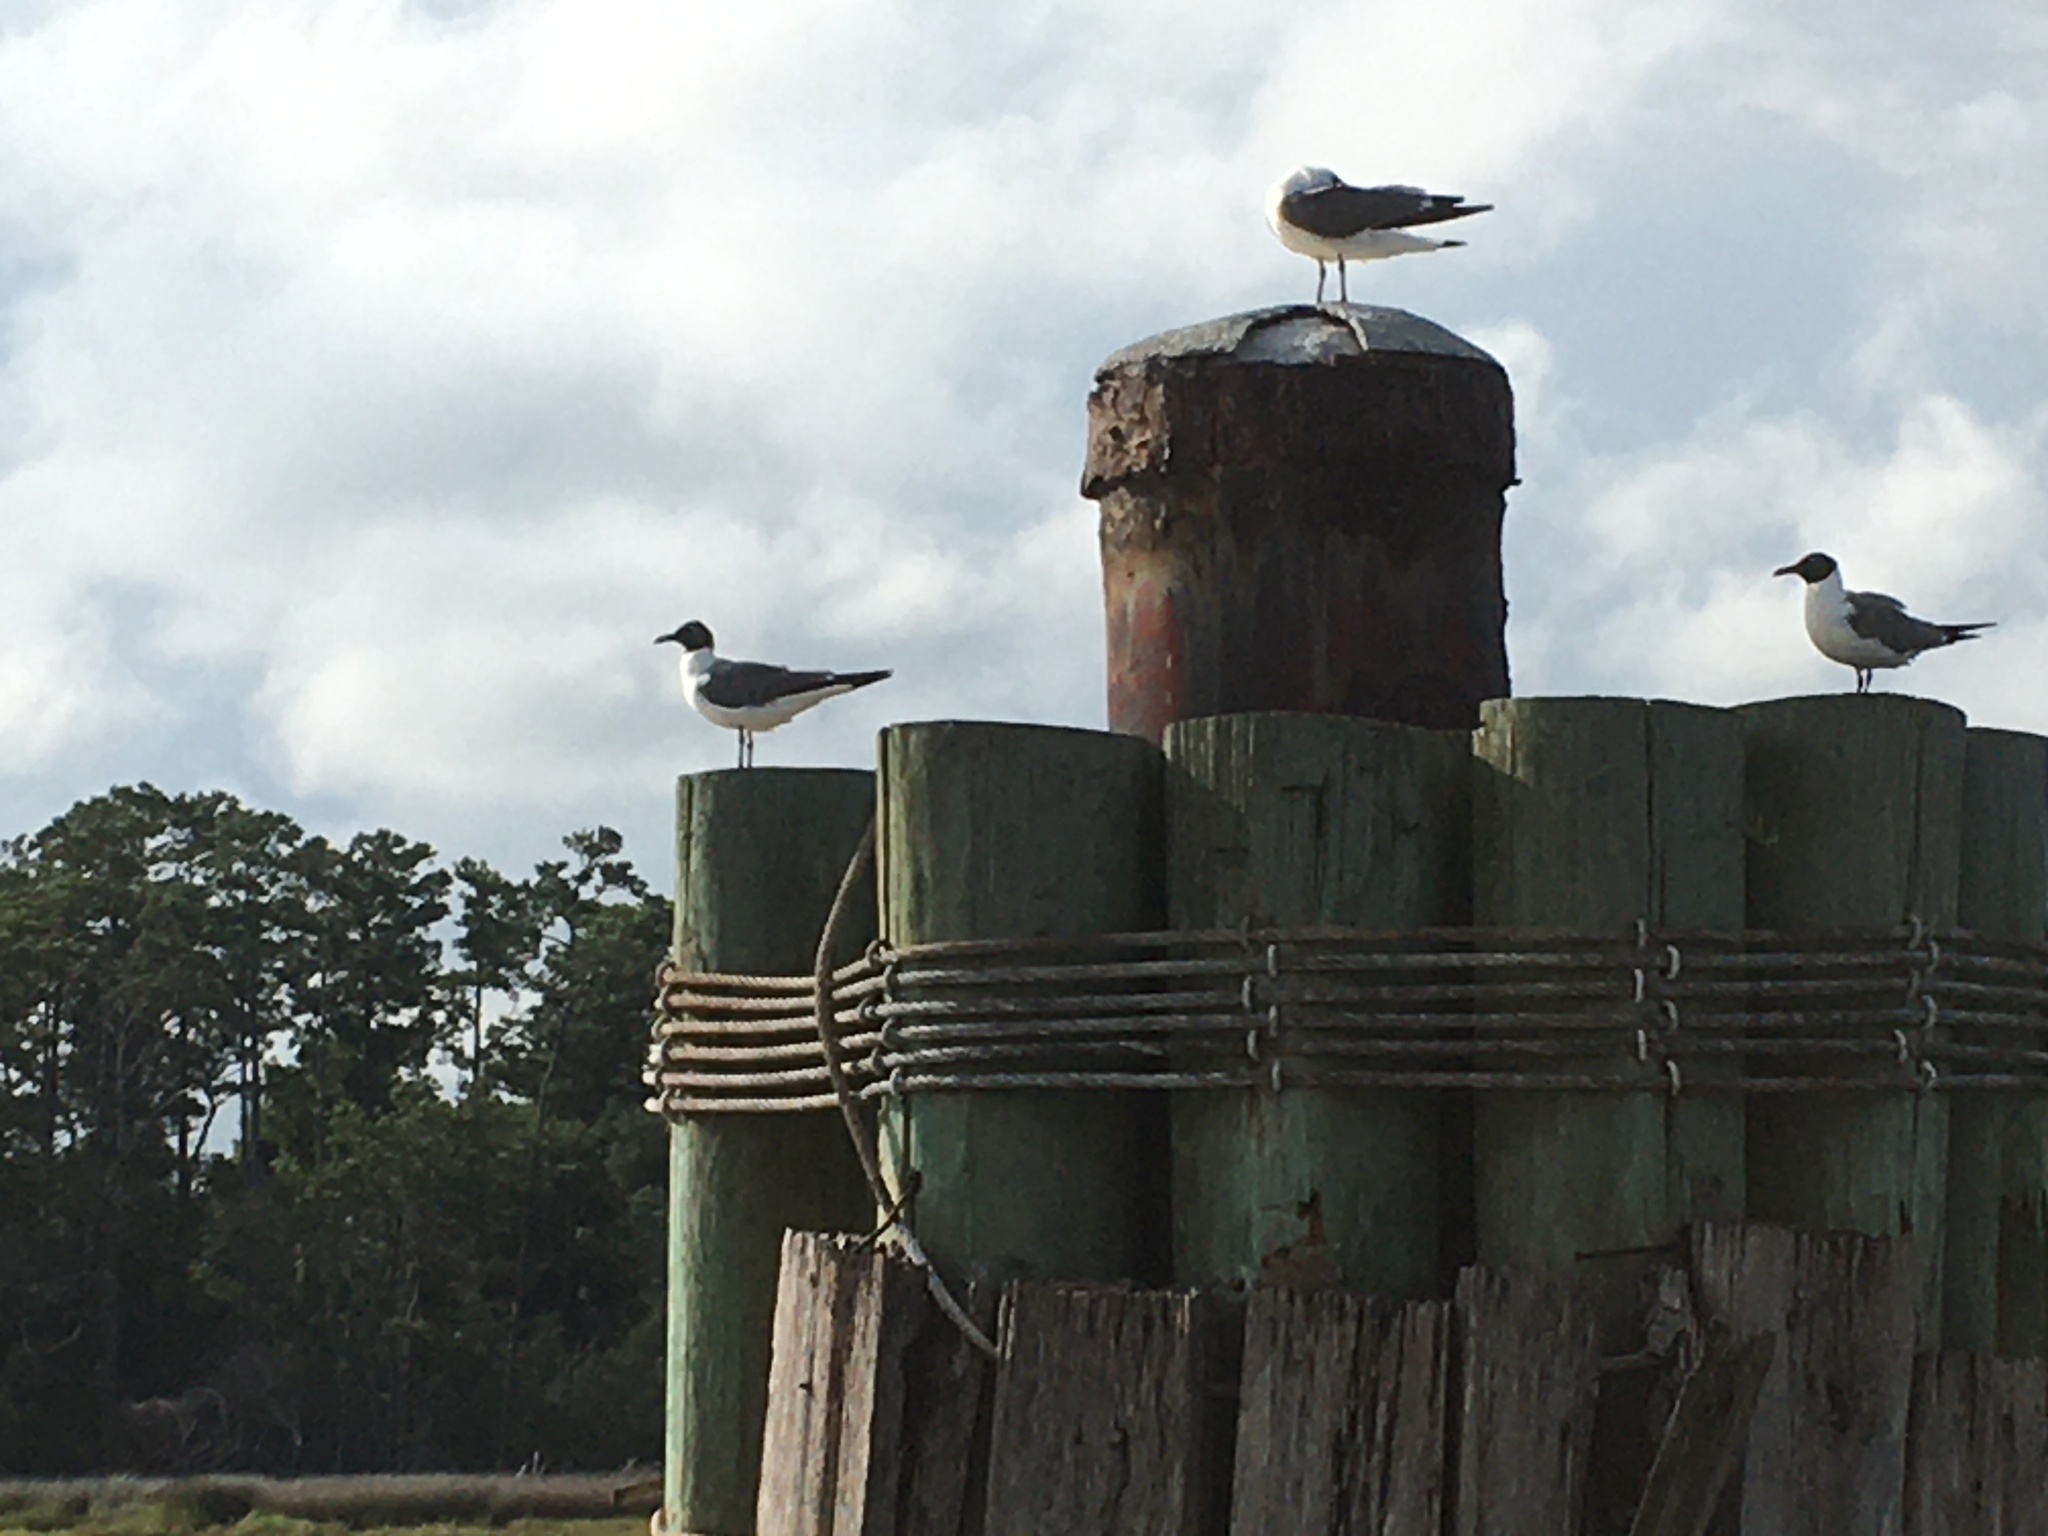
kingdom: Animalia
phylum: Chordata
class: Aves
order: Charadriiformes
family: Laridae
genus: Leucophaeus
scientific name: Leucophaeus atricilla
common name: Laughing gull
